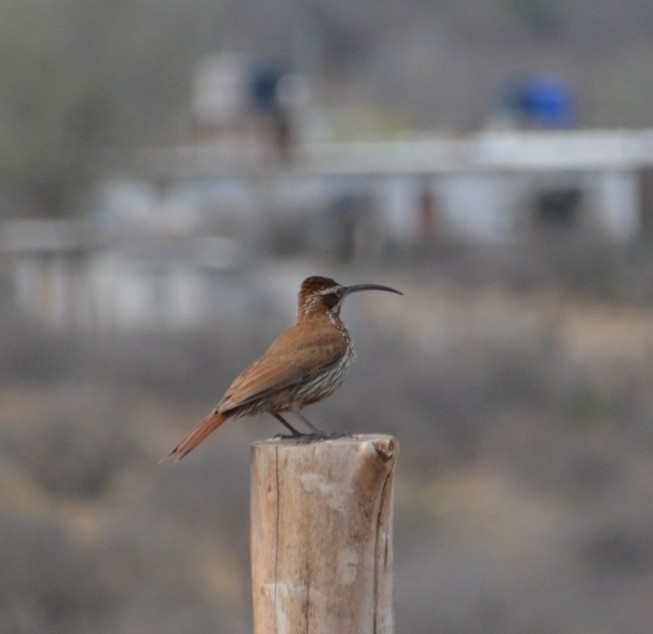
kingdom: Animalia
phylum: Chordata
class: Aves
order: Passeriformes
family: Furnariidae
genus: Drymornis
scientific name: Drymornis bridgesii
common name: Scimitar-billed woodcreeper
